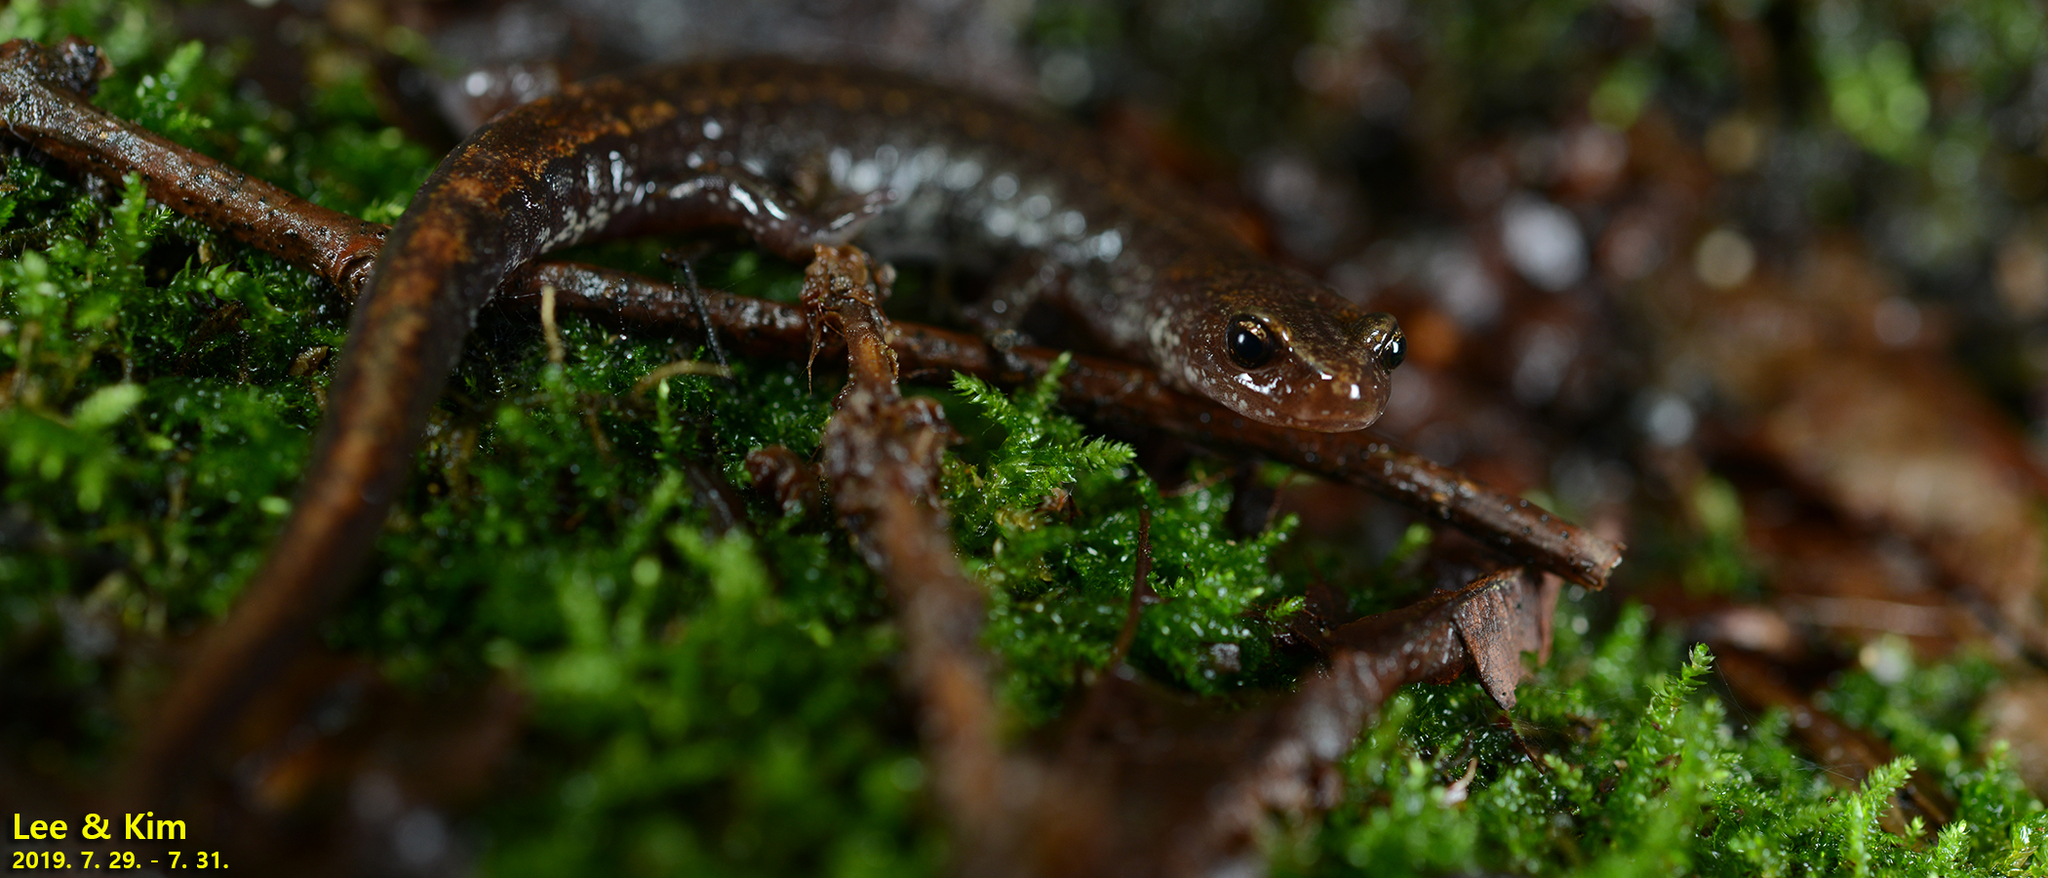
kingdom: Animalia
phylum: Chordata
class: Amphibia
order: Caudata
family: Plethodontidae
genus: Karsenia
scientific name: Karsenia koreana
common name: Korean crevice salamander
